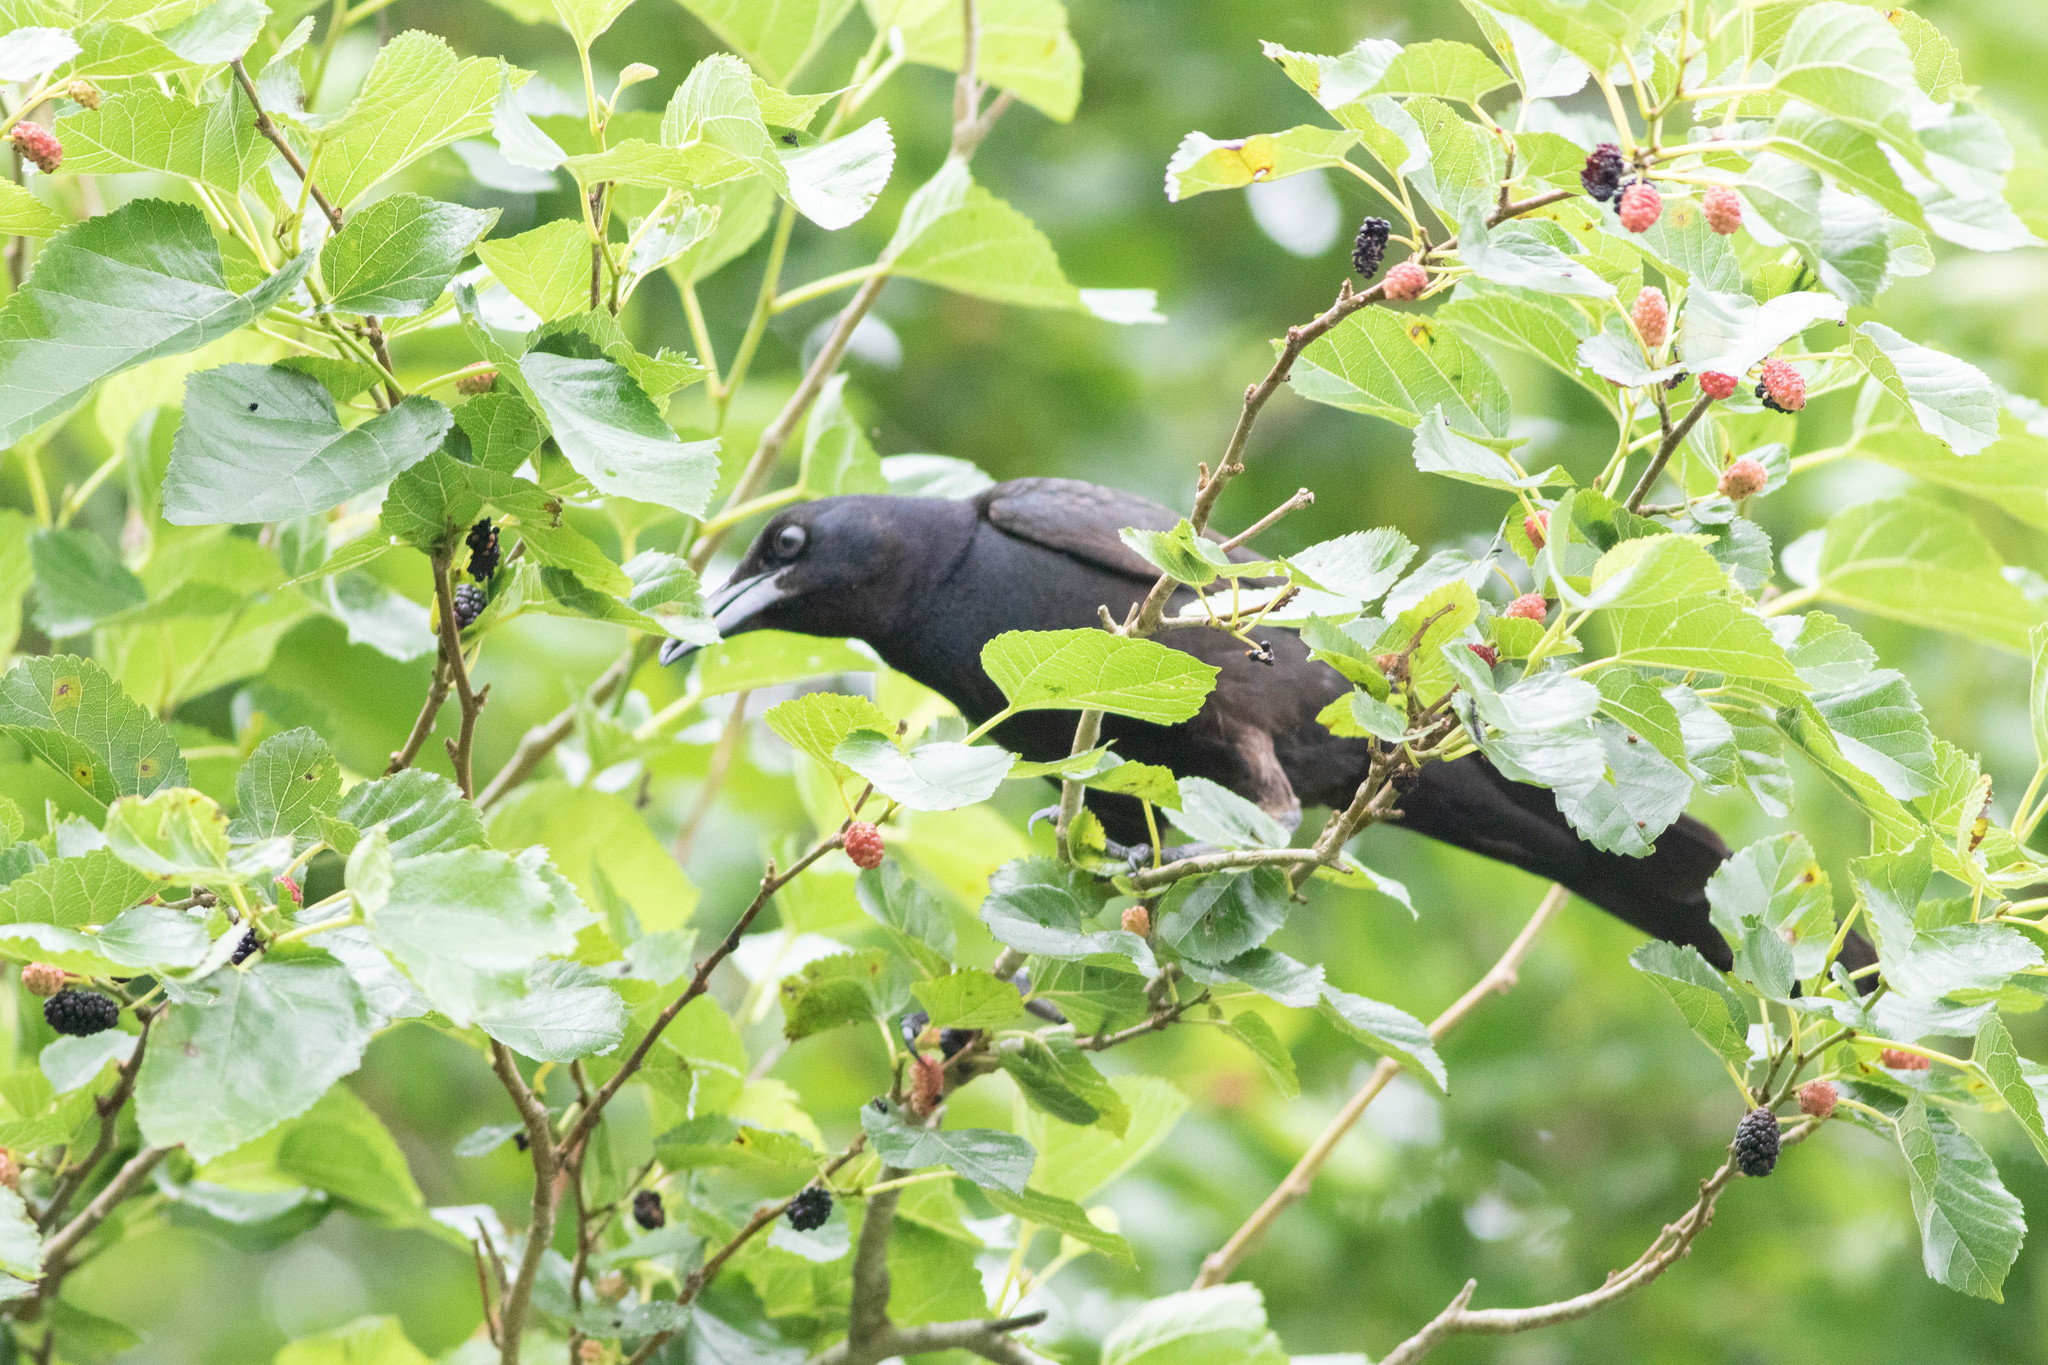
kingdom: Animalia
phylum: Chordata
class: Aves
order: Passeriformes
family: Icteridae
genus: Quiscalus
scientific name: Quiscalus major
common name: Boat-tailed grackle
